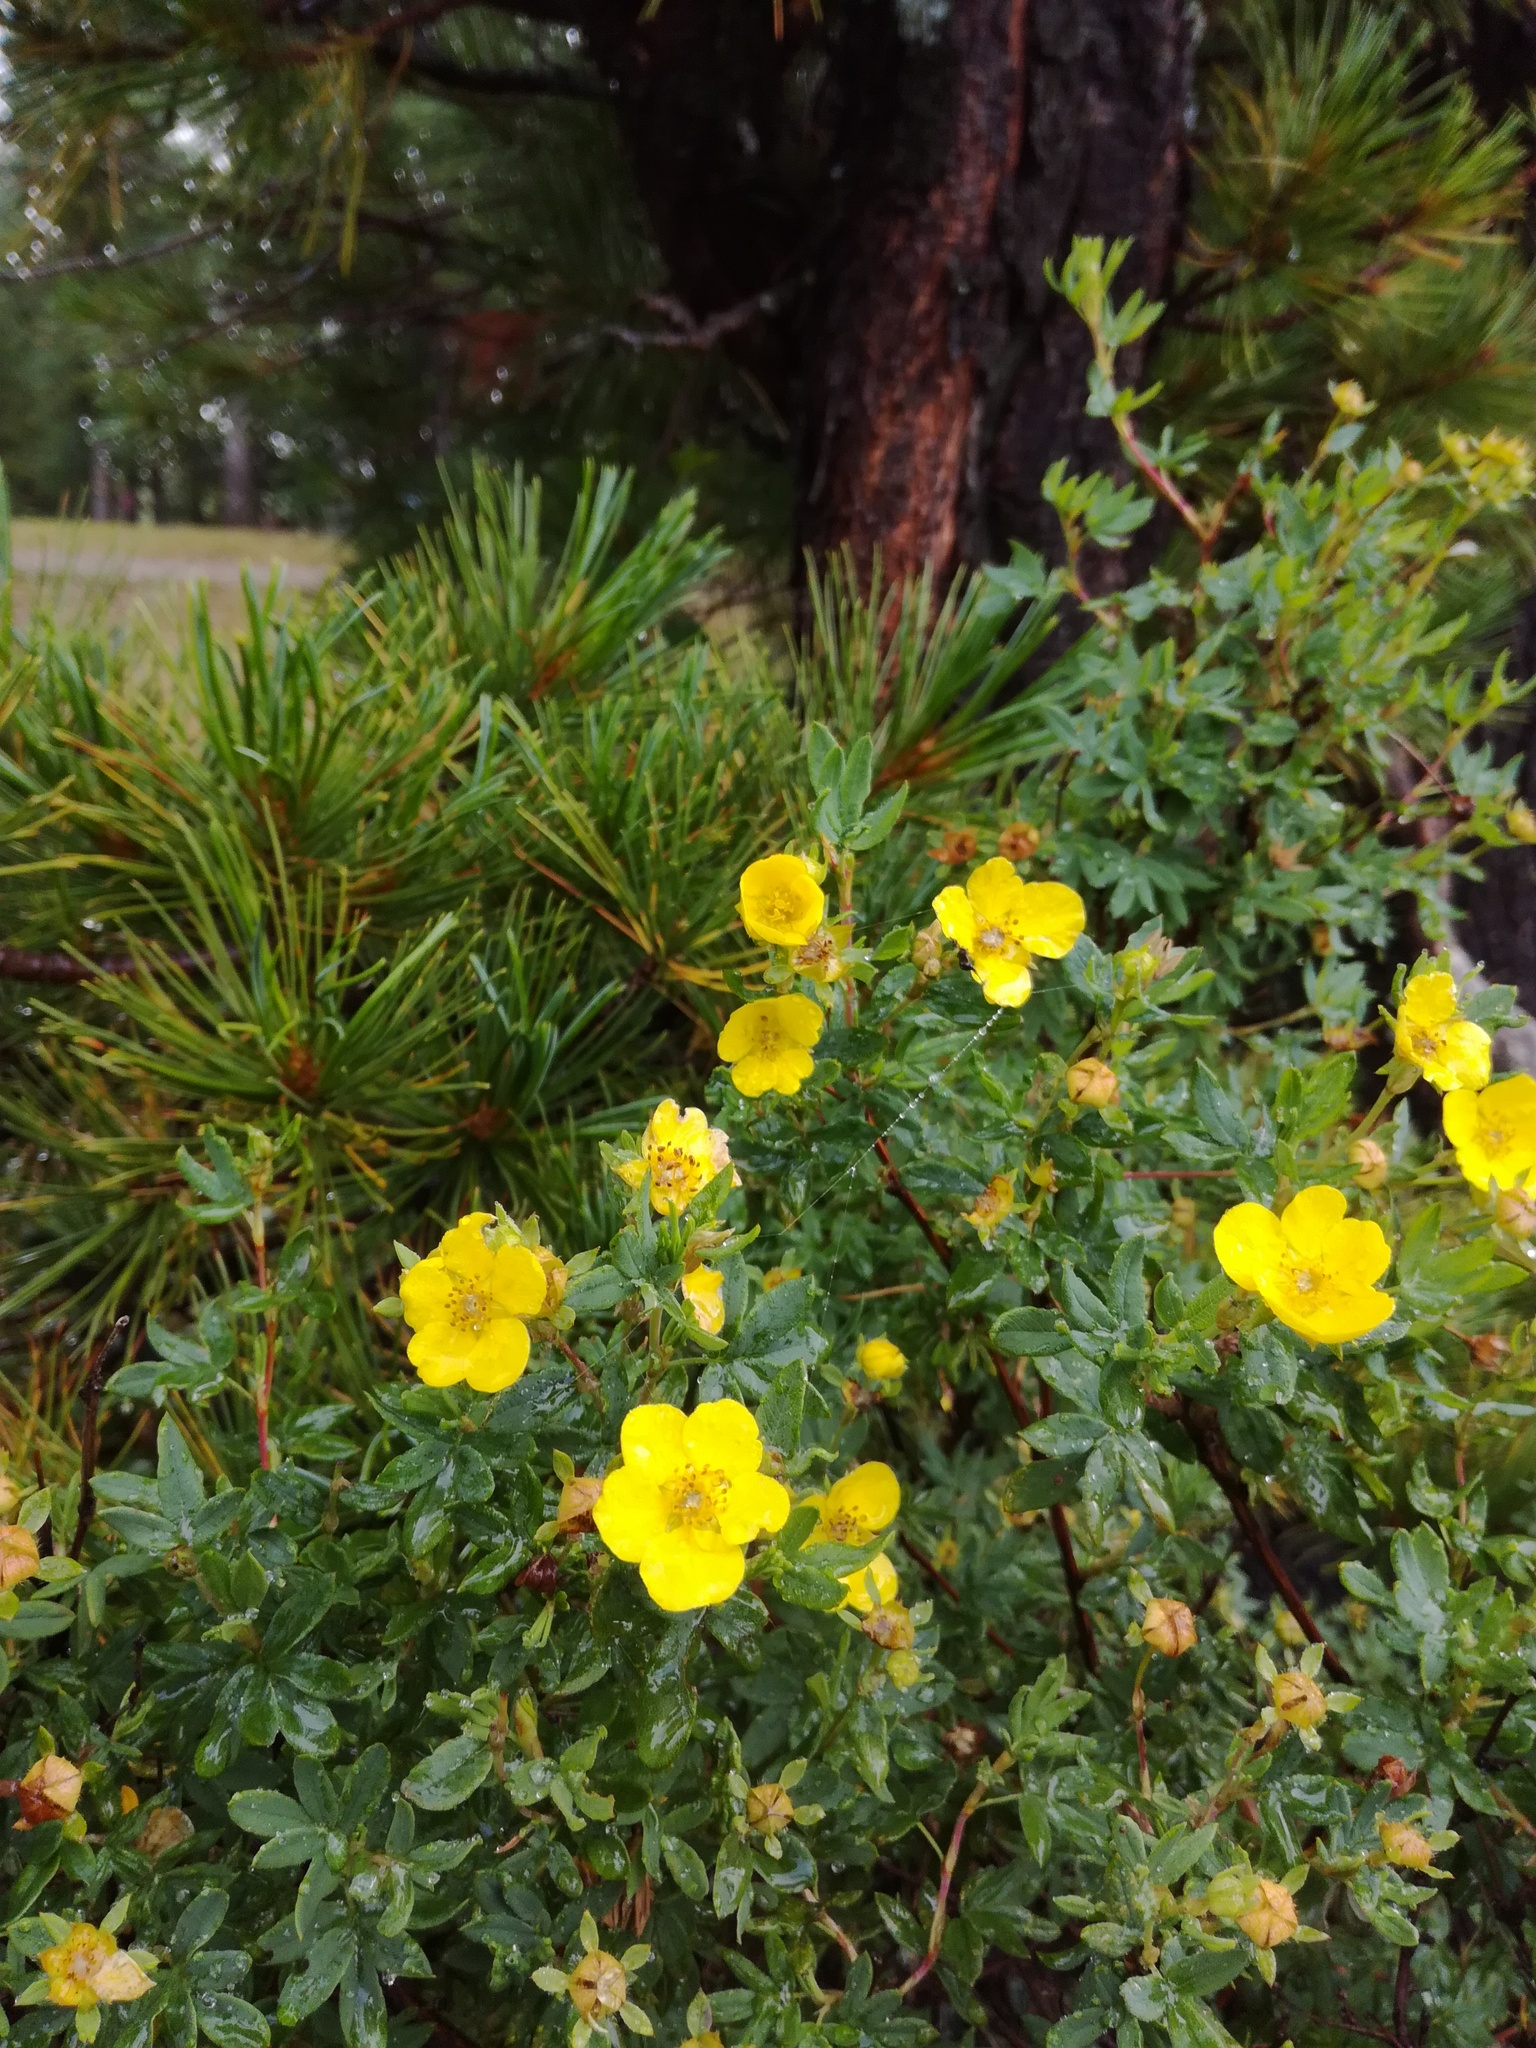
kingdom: Plantae
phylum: Tracheophyta
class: Magnoliopsida
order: Rosales
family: Rosaceae
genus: Dasiphora
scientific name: Dasiphora fruticosa
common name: Shrubby cinquefoil
